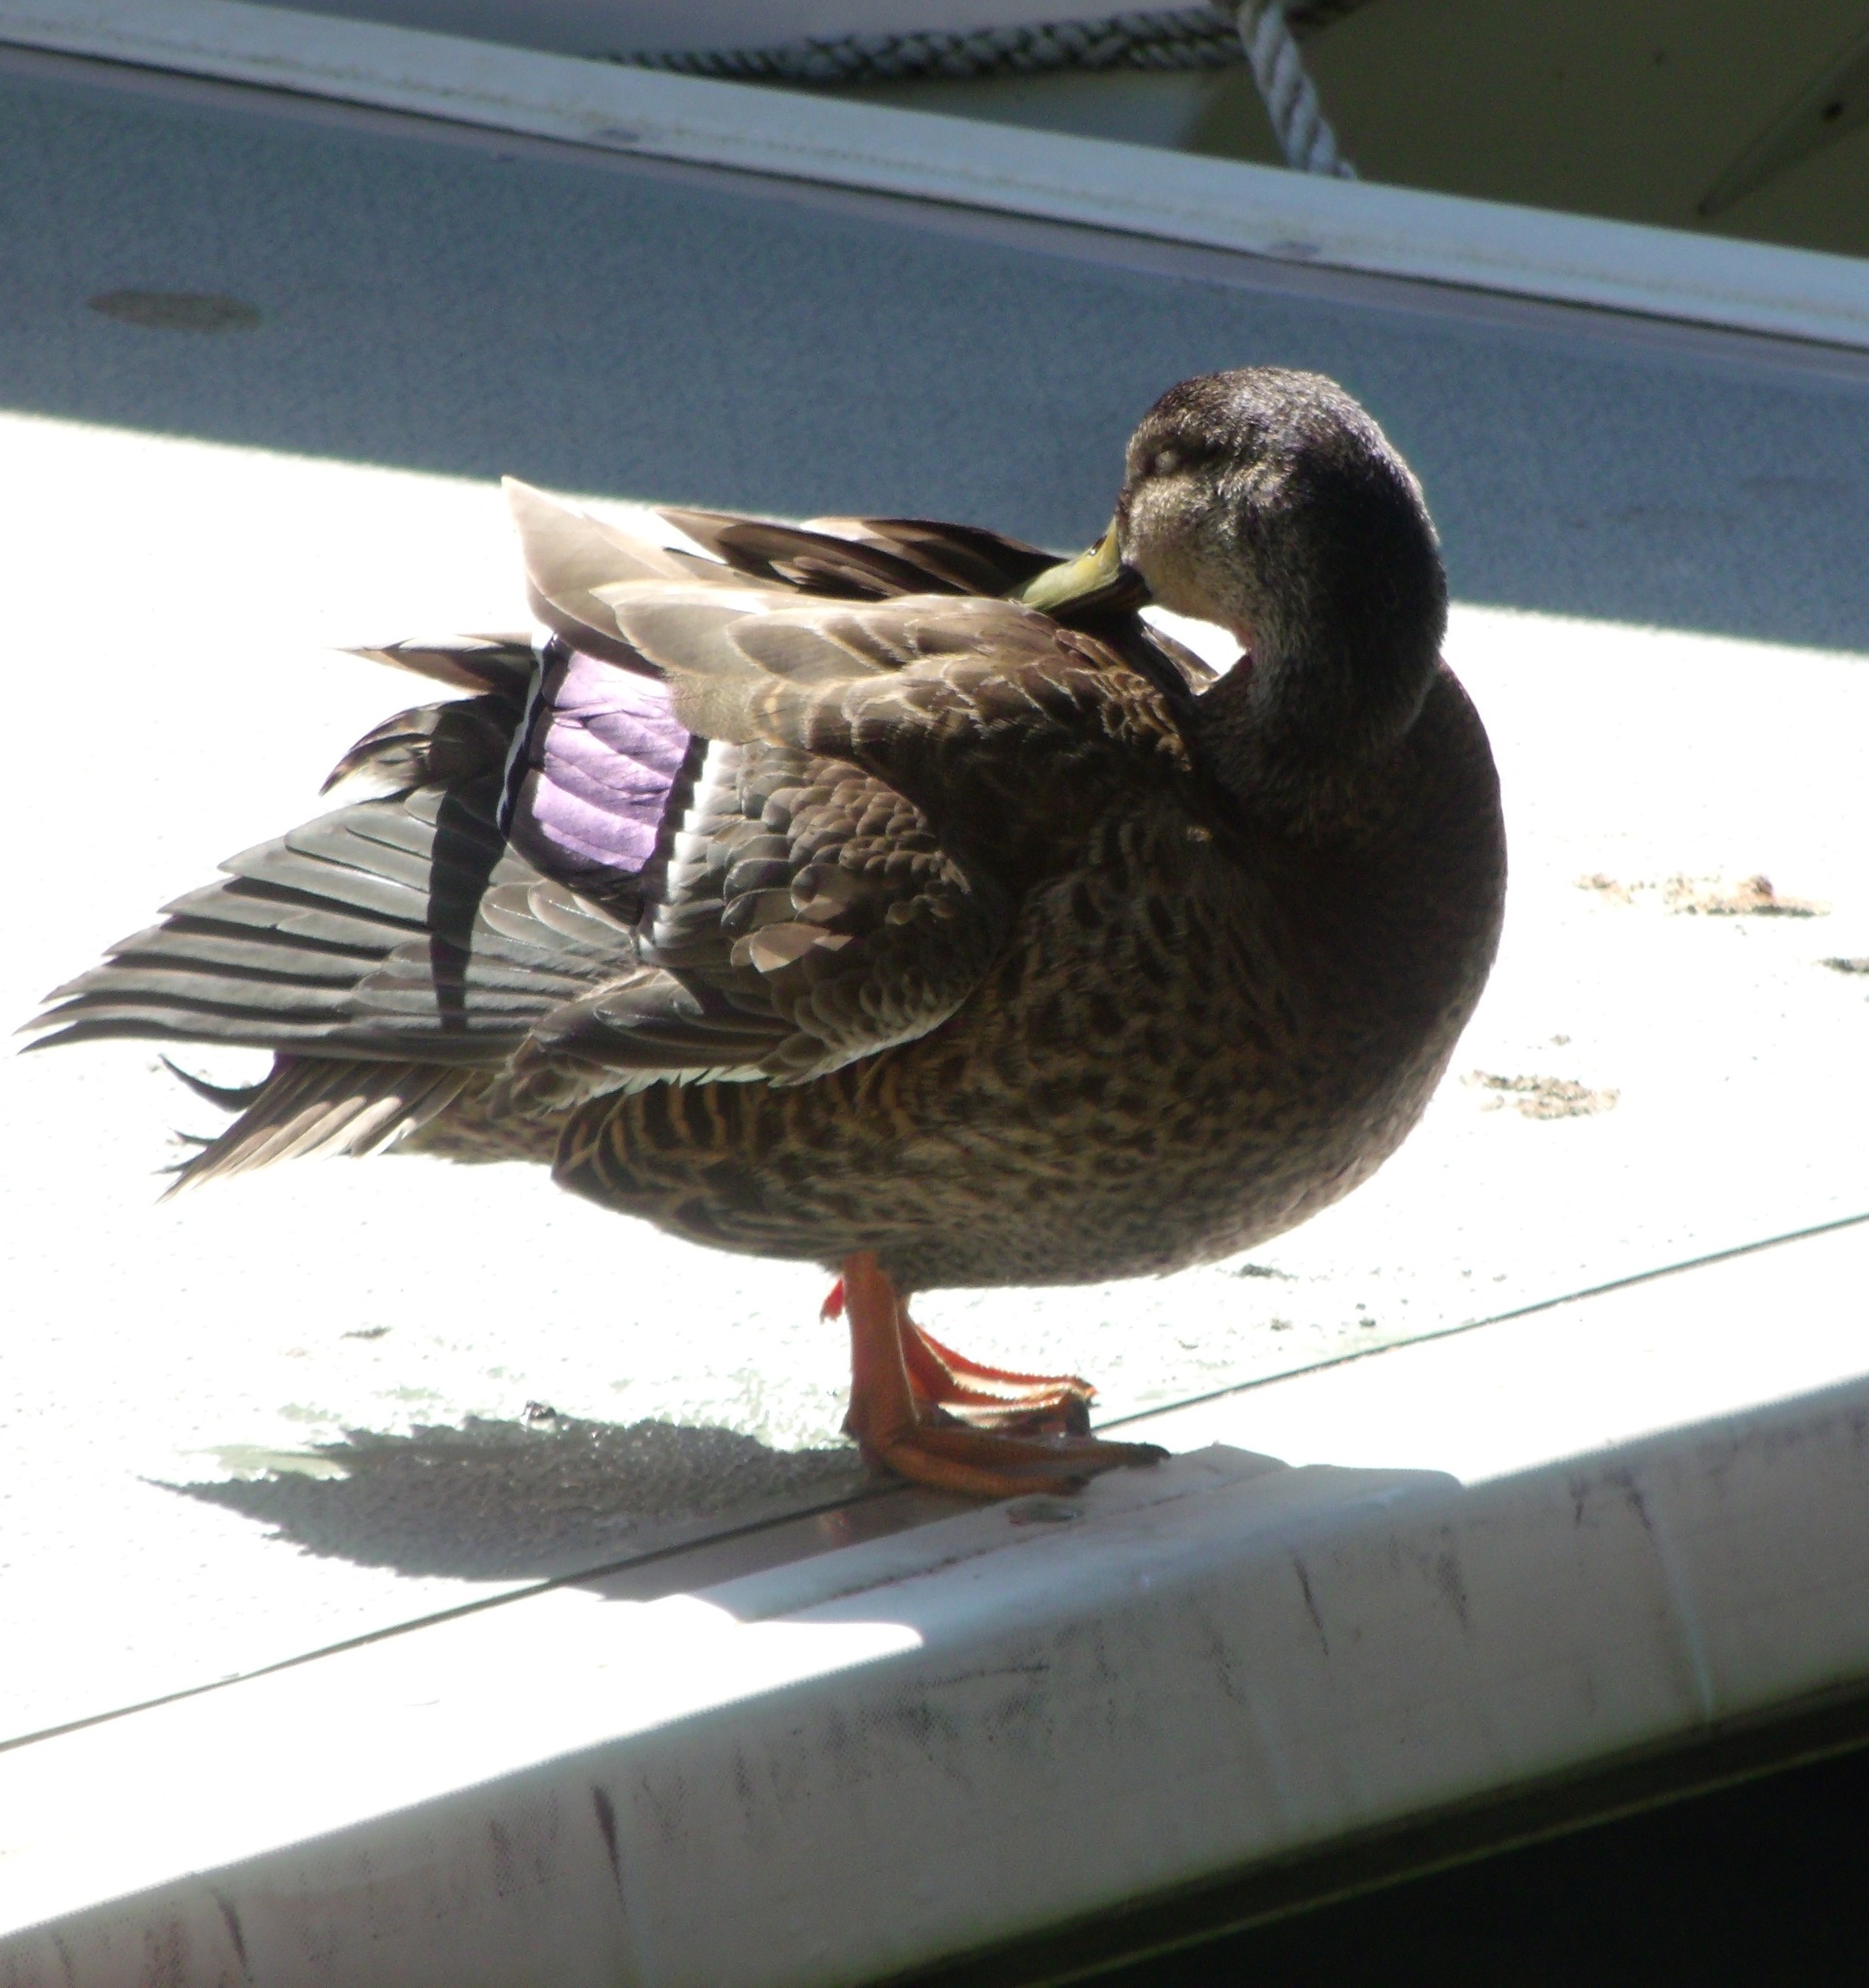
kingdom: Animalia
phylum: Chordata
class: Aves
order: Anseriformes
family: Anatidae
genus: Anas
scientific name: Anas
